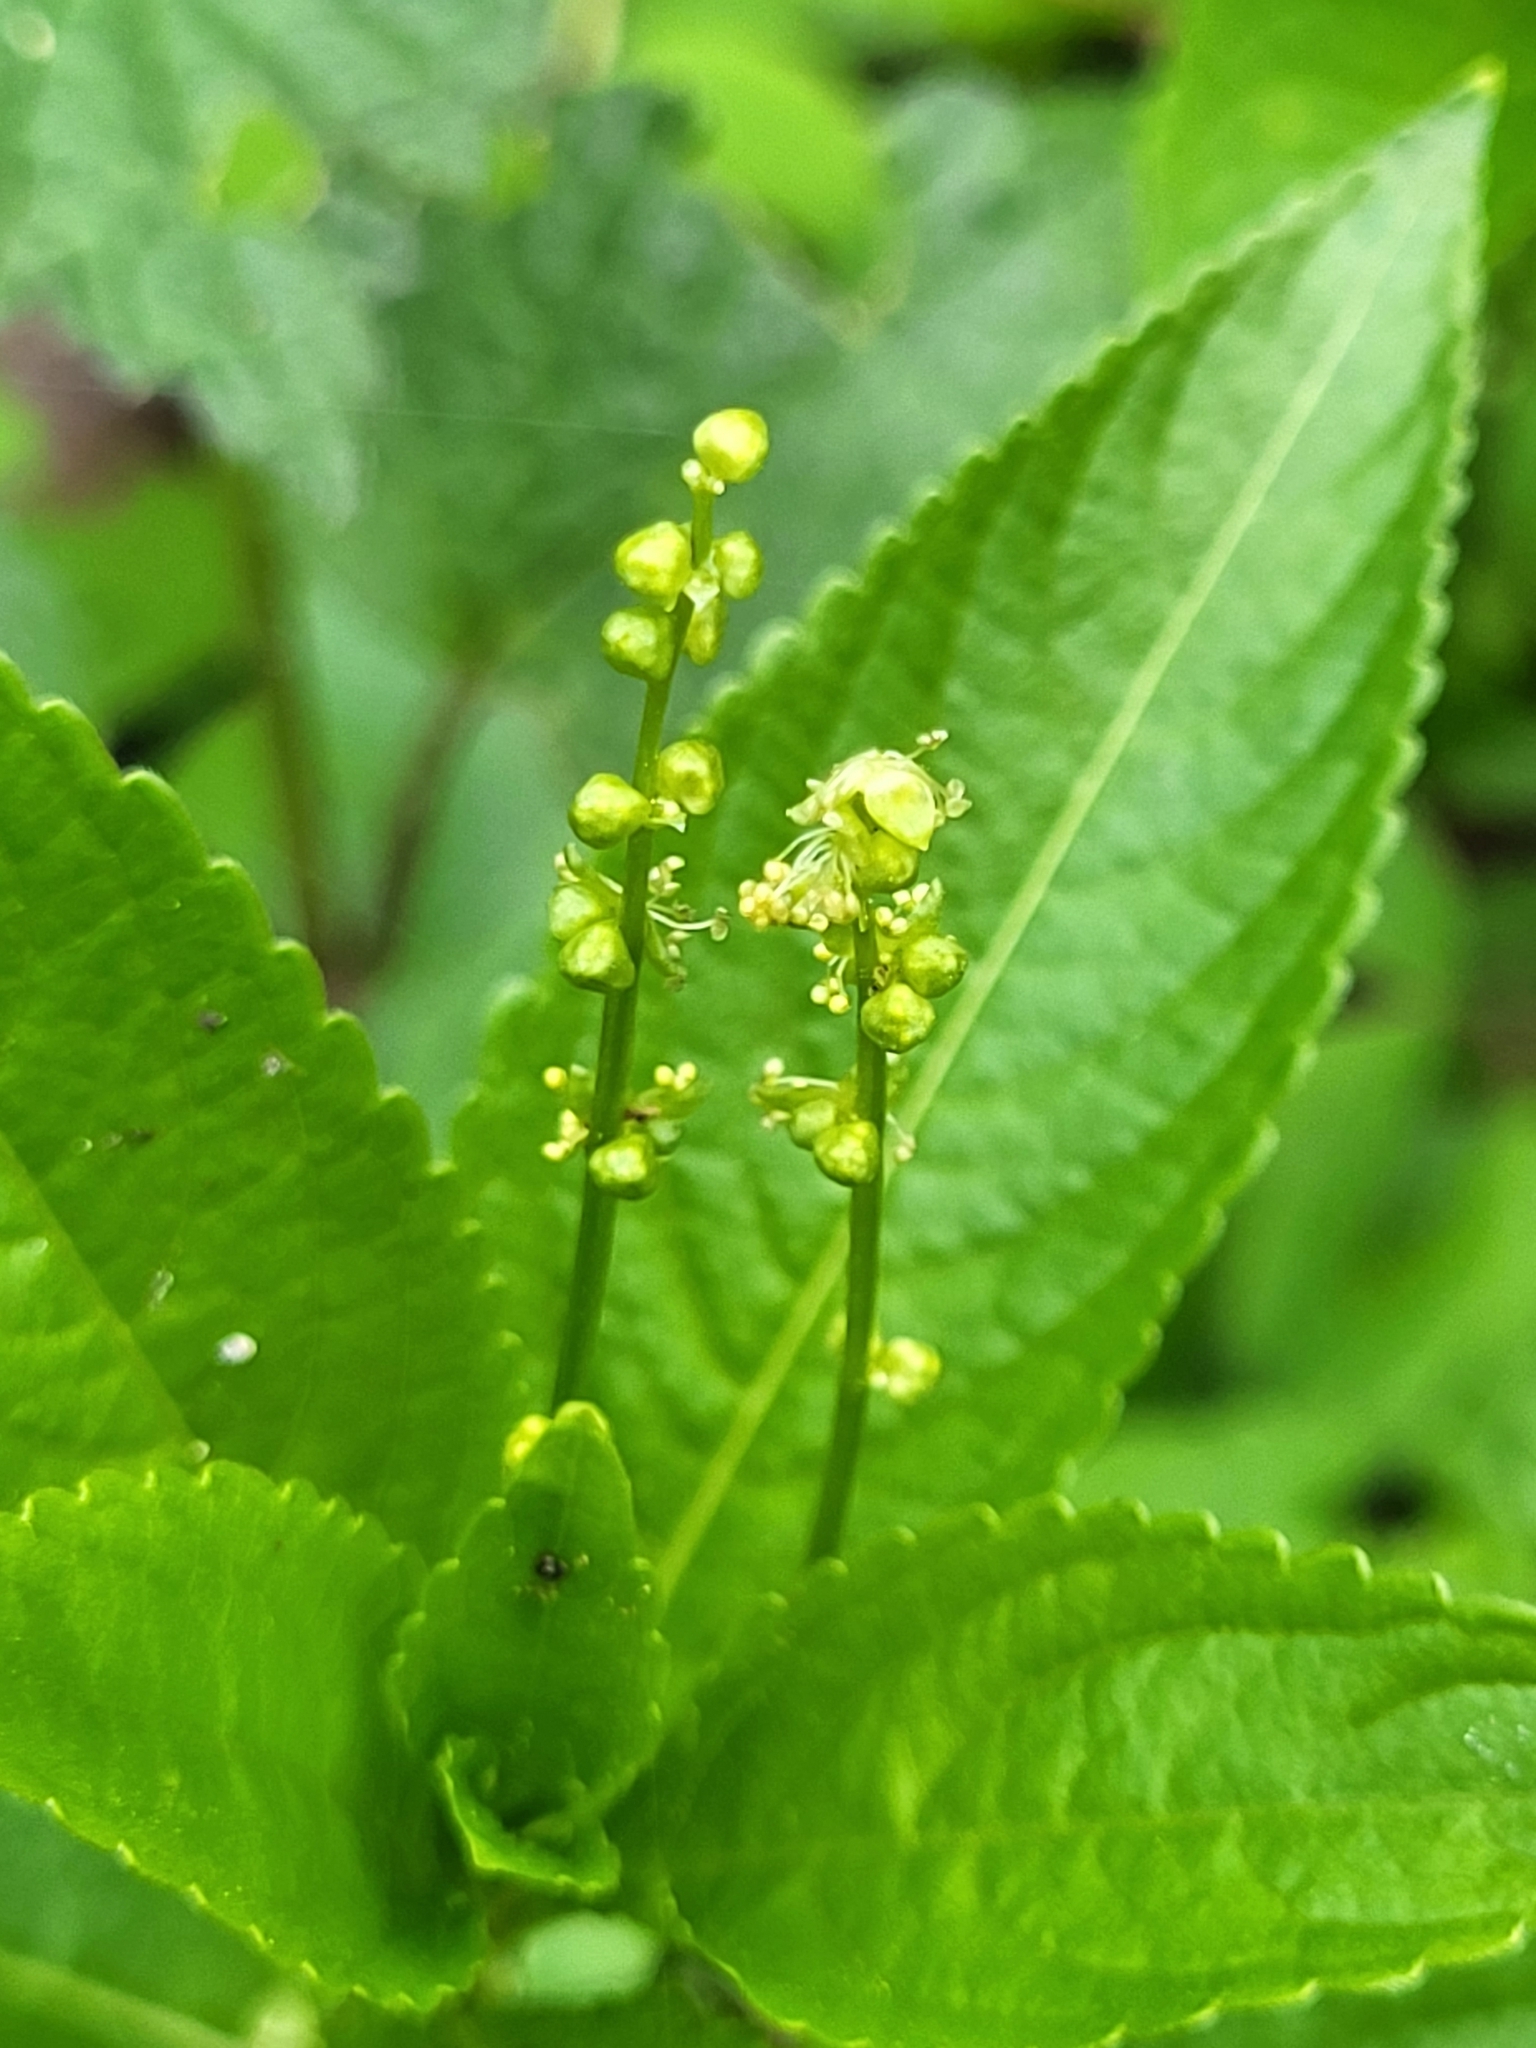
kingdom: Plantae
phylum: Tracheophyta
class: Magnoliopsida
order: Malpighiales
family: Euphorbiaceae
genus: Mercurialis
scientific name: Mercurialis perennis
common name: Dog mercury
